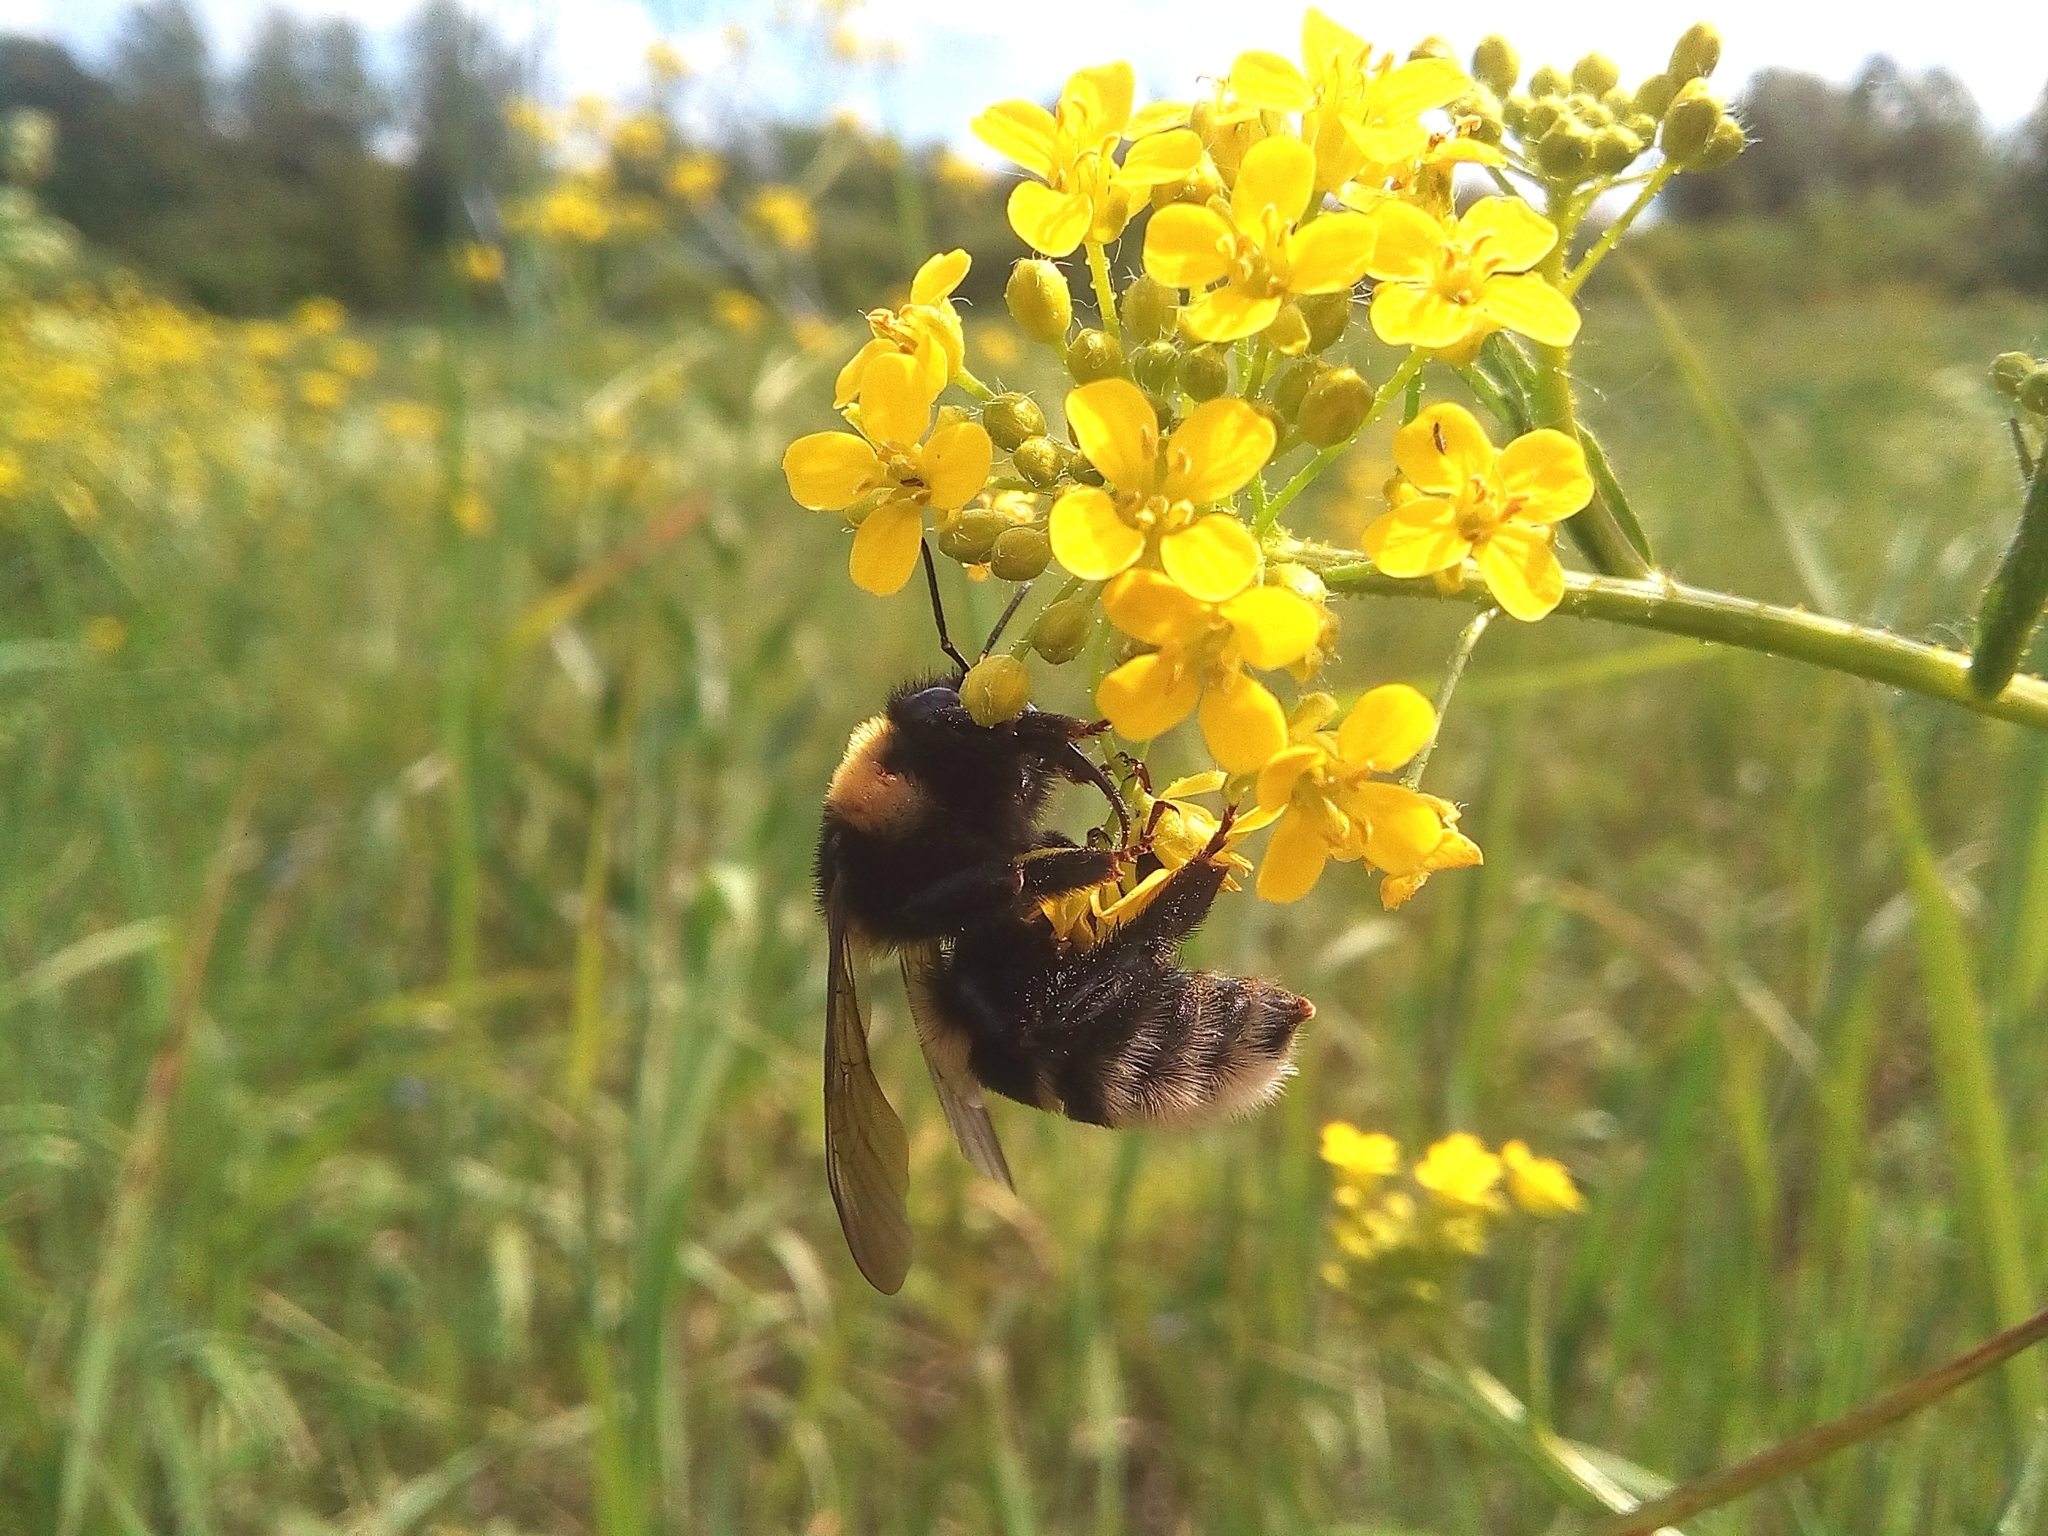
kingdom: Animalia
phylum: Arthropoda
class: Insecta
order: Hymenoptera
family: Apidae
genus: Bombus
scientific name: Bombus subterraneus
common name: Short-haired humble-bee
